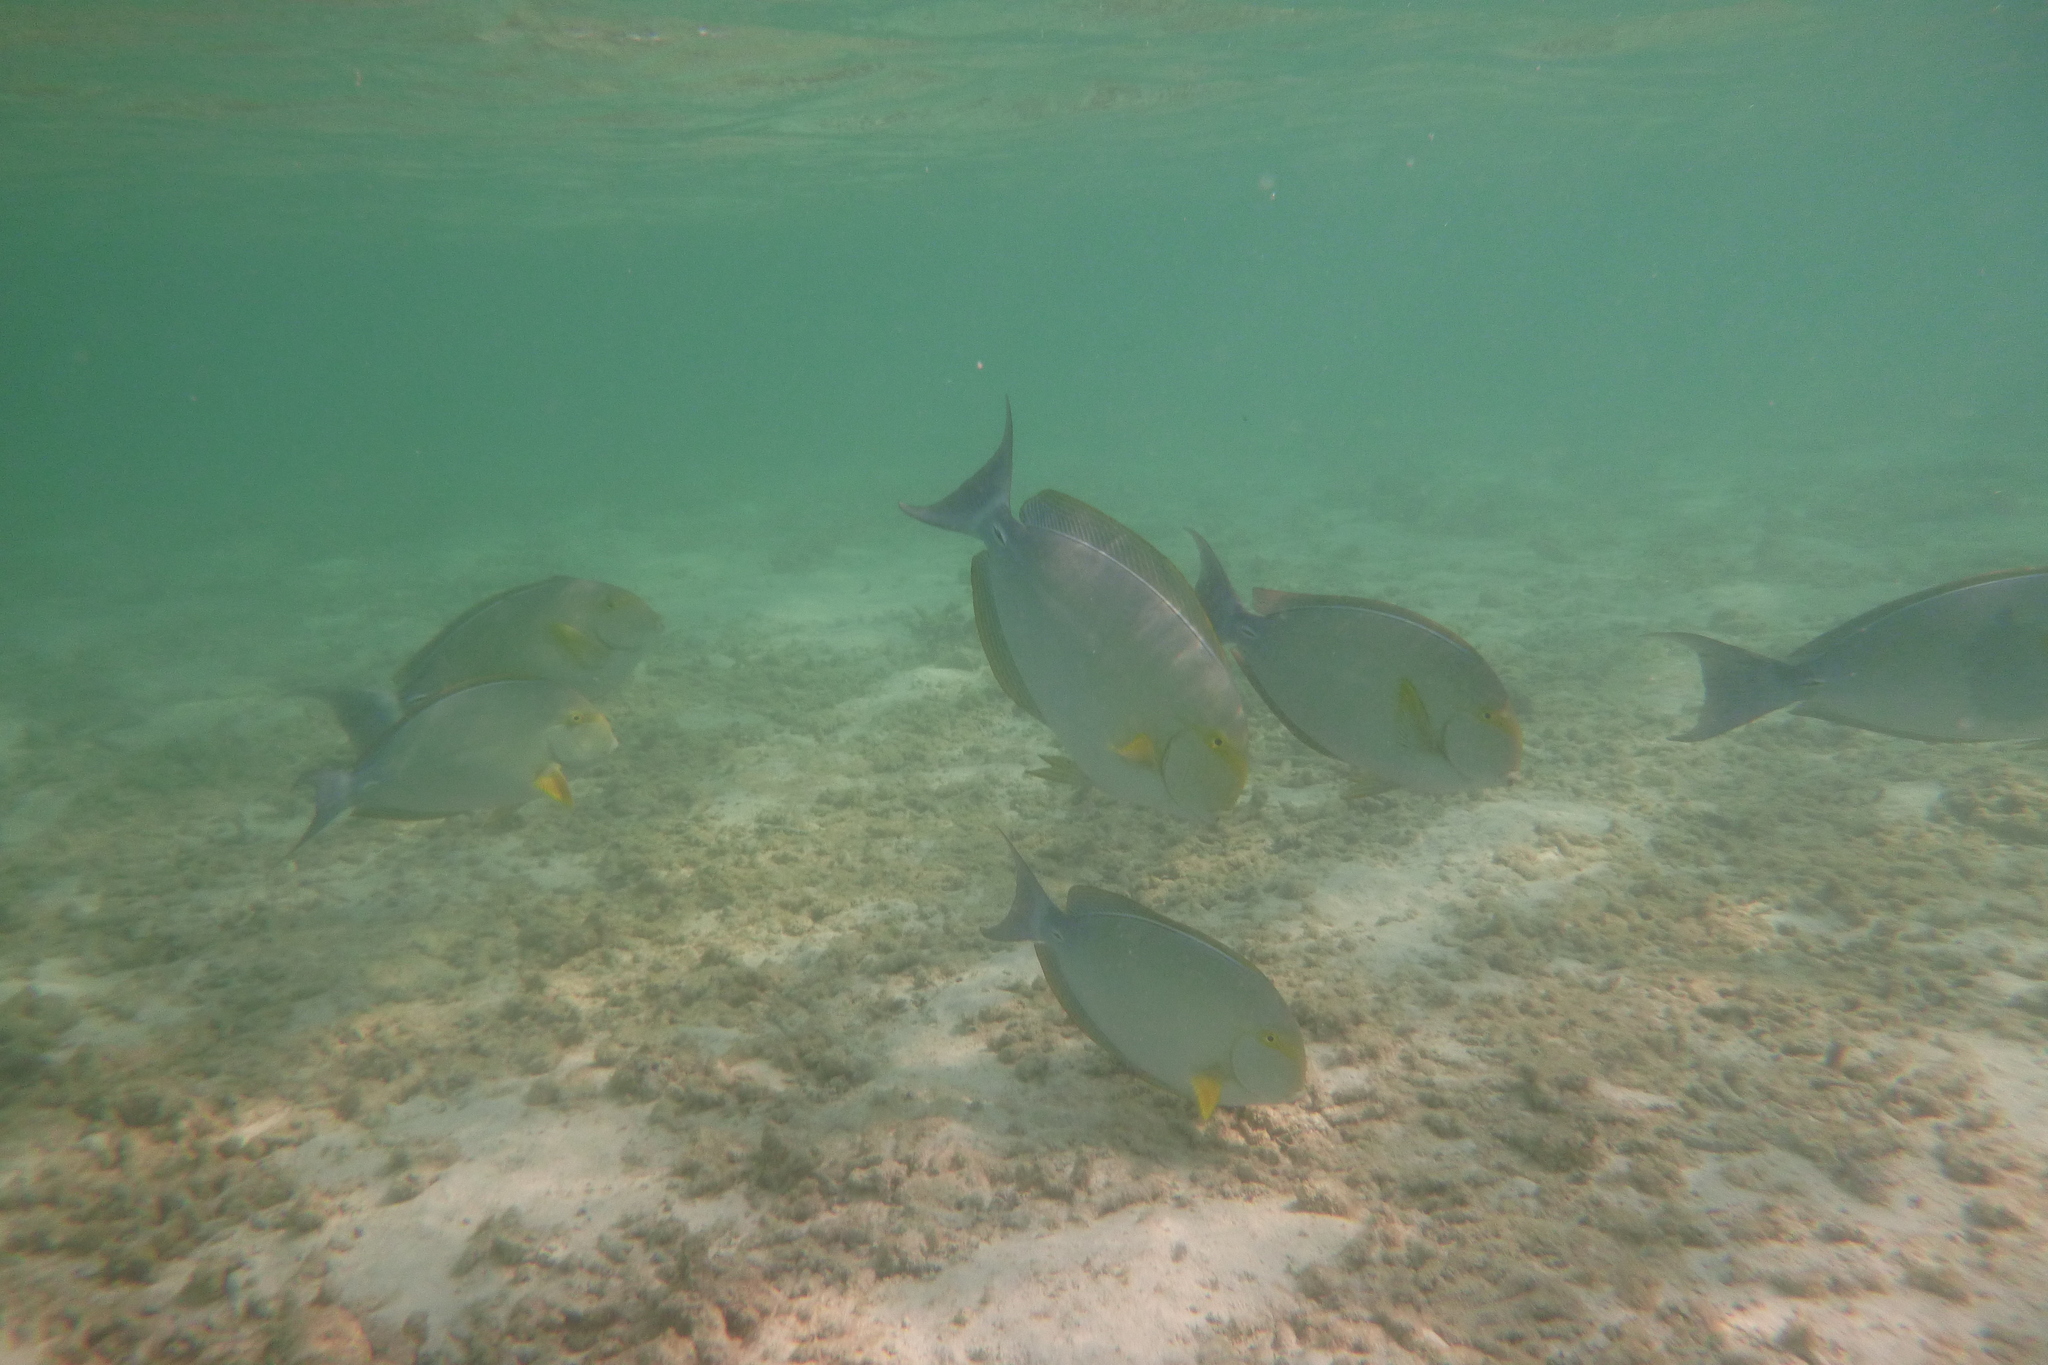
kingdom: Animalia
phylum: Chordata
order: Perciformes
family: Acanthuridae
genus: Acanthurus
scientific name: Acanthurus xanthopterus
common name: Cuvier's surgeonfish
